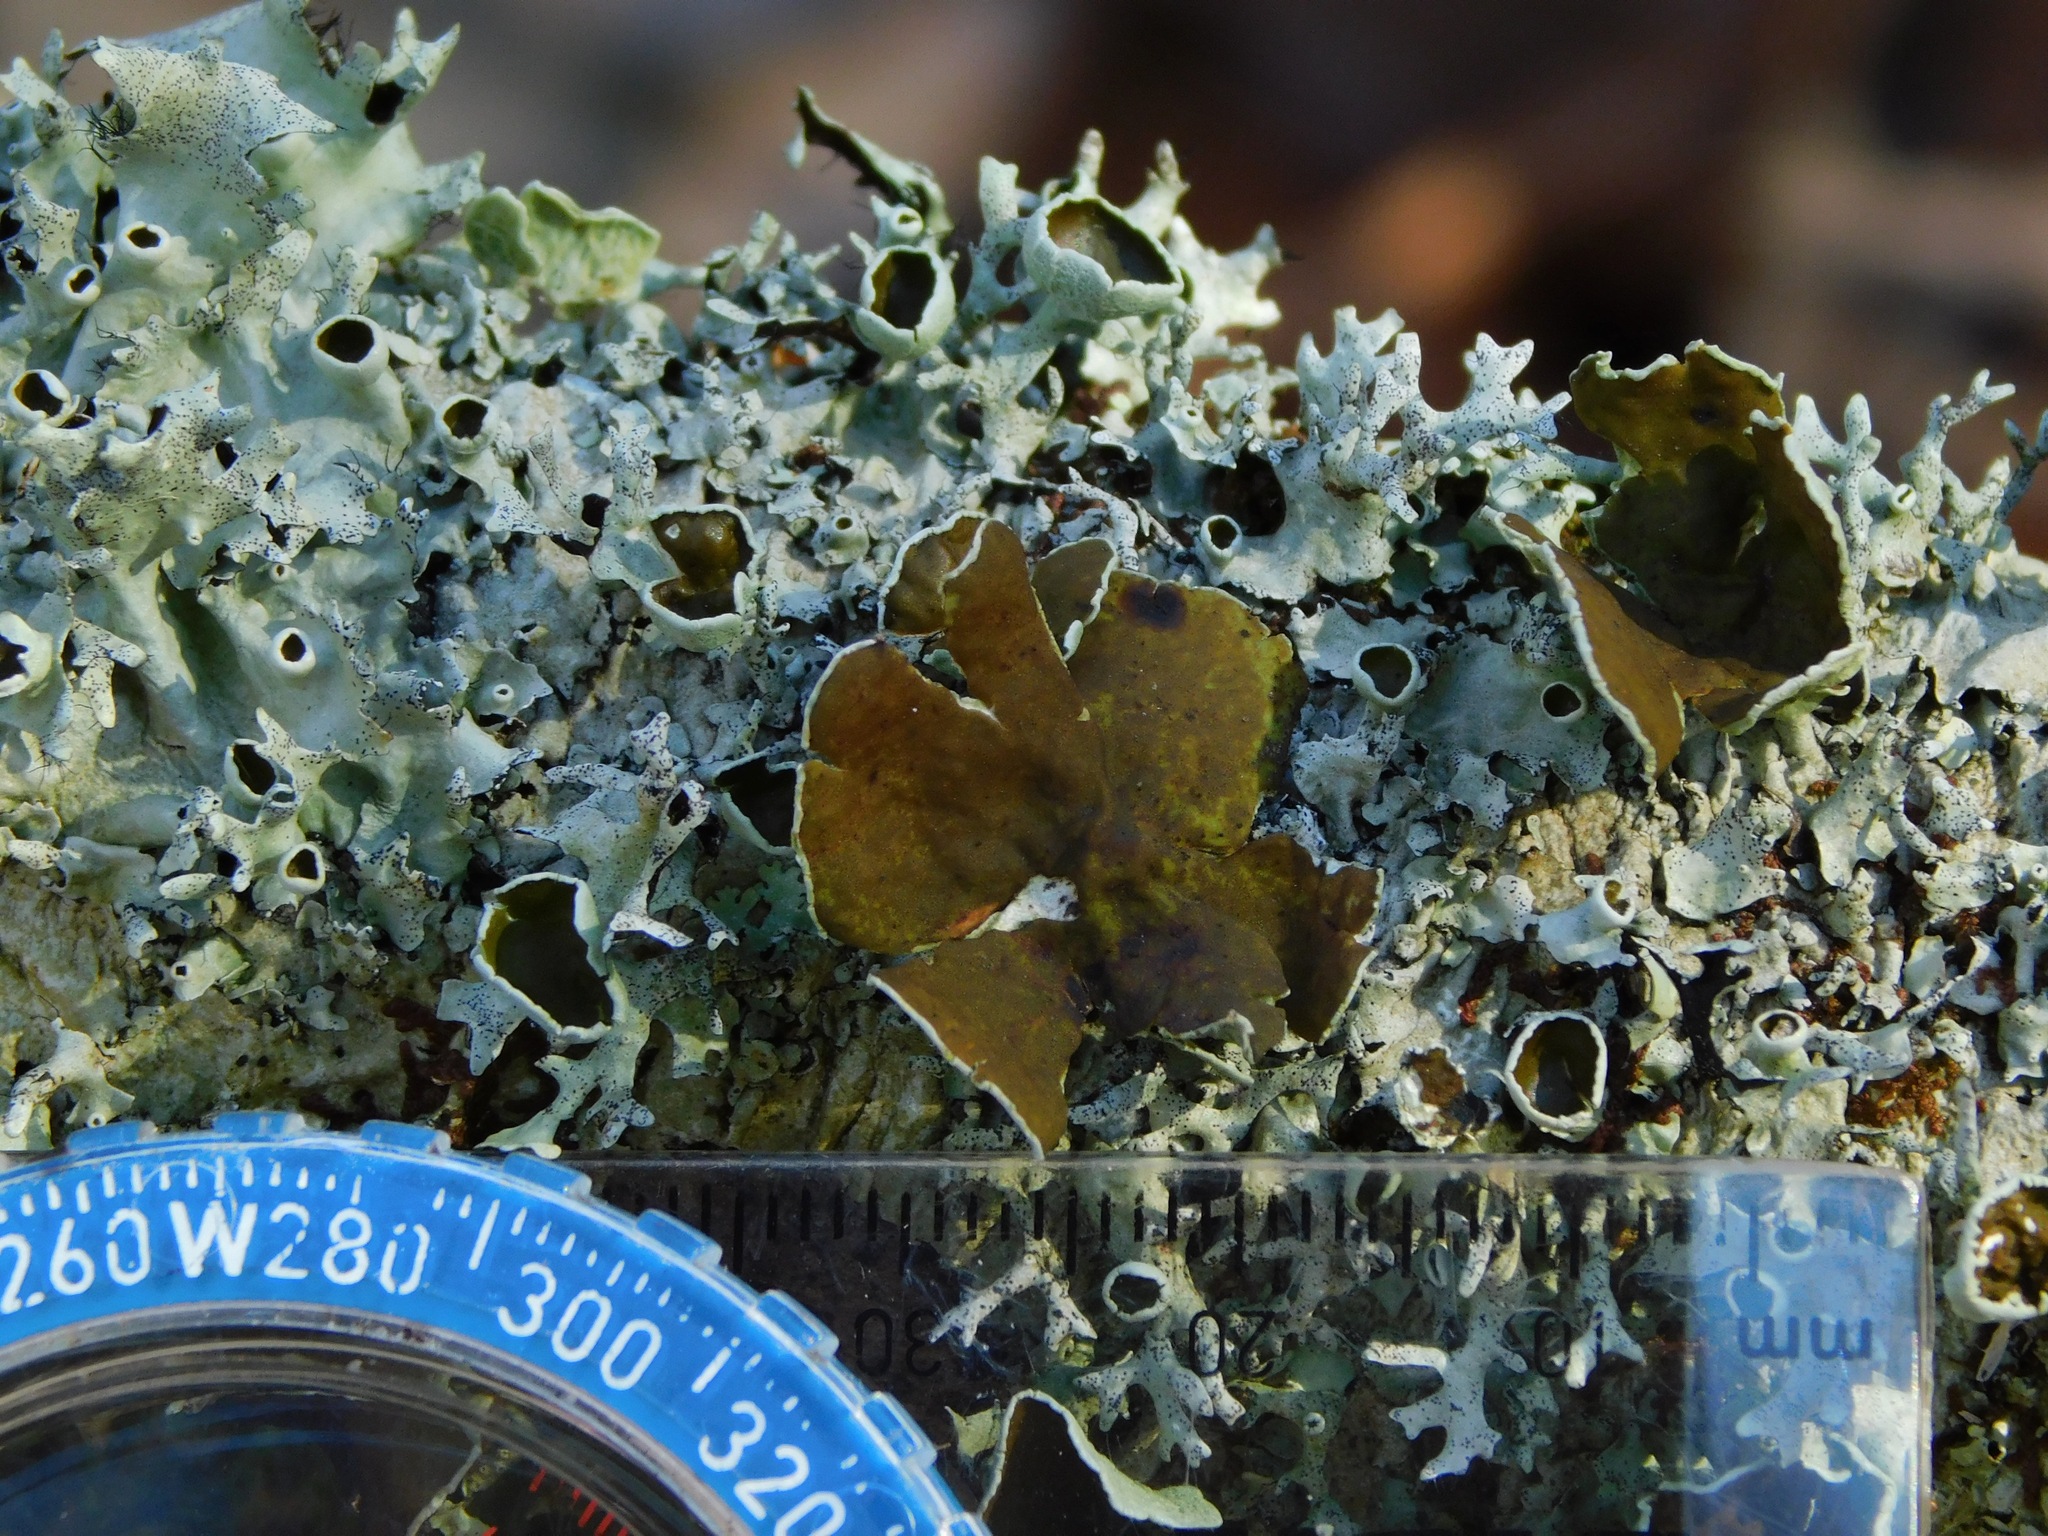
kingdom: Fungi
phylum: Ascomycota
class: Lecanoromycetes
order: Lecanorales
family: Parmeliaceae
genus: Parmotrema
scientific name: Parmotrema submarginale
